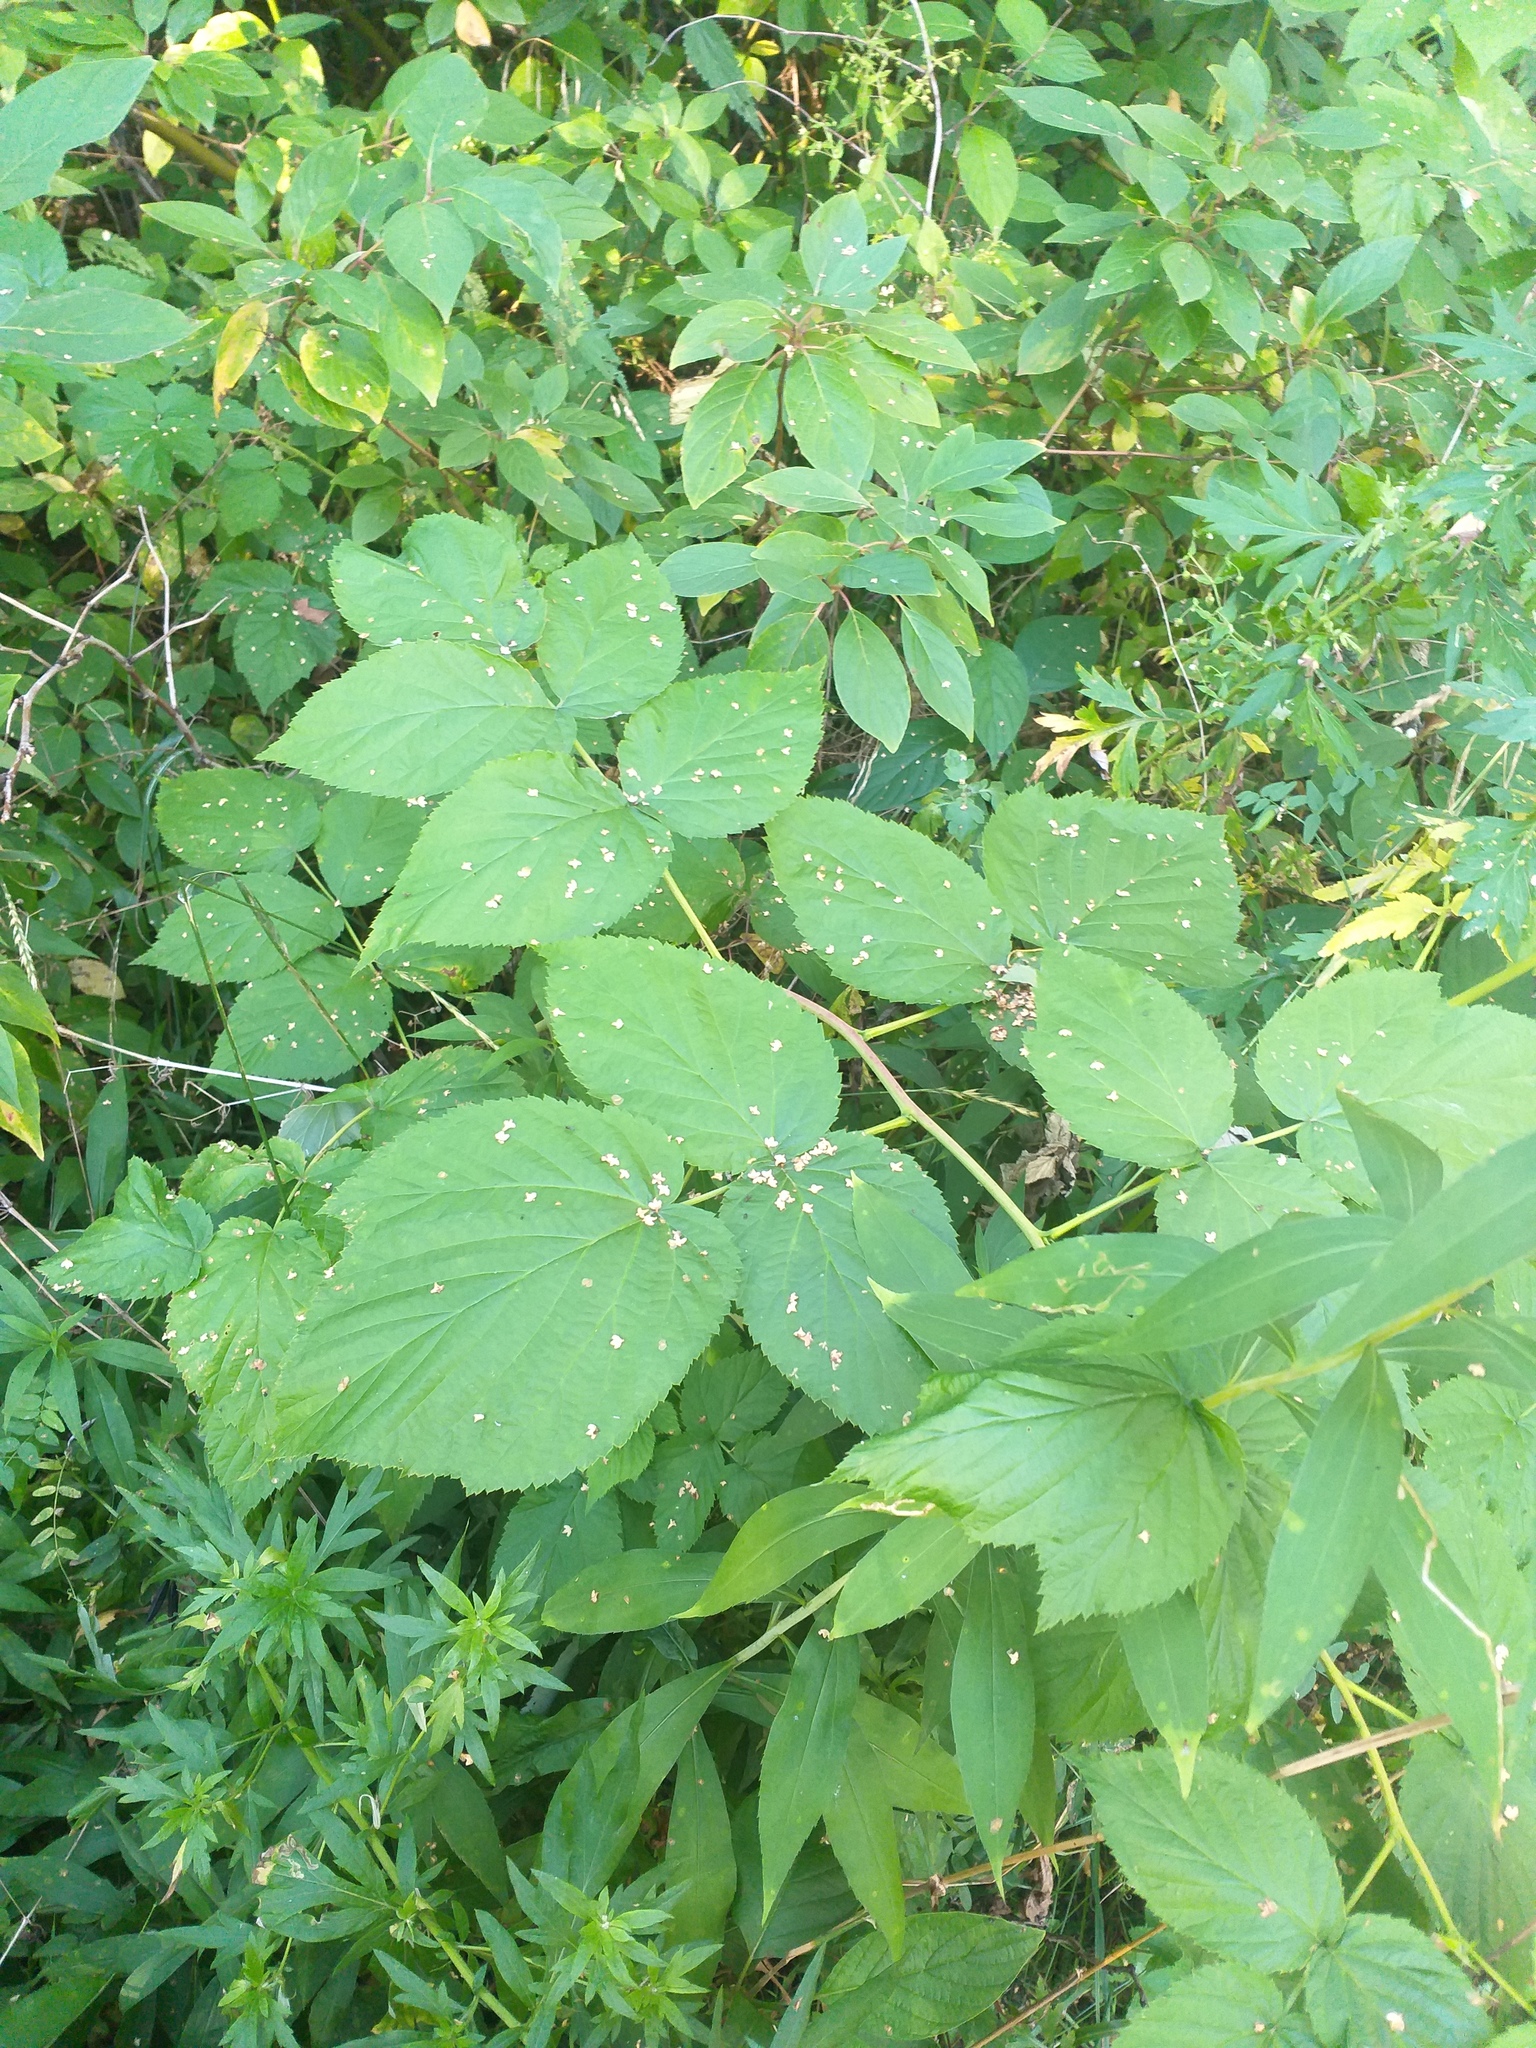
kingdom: Plantae
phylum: Tracheophyta
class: Magnoliopsida
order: Rosales
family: Rosaceae
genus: Rubus
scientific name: Rubus idaeus
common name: Raspberry
